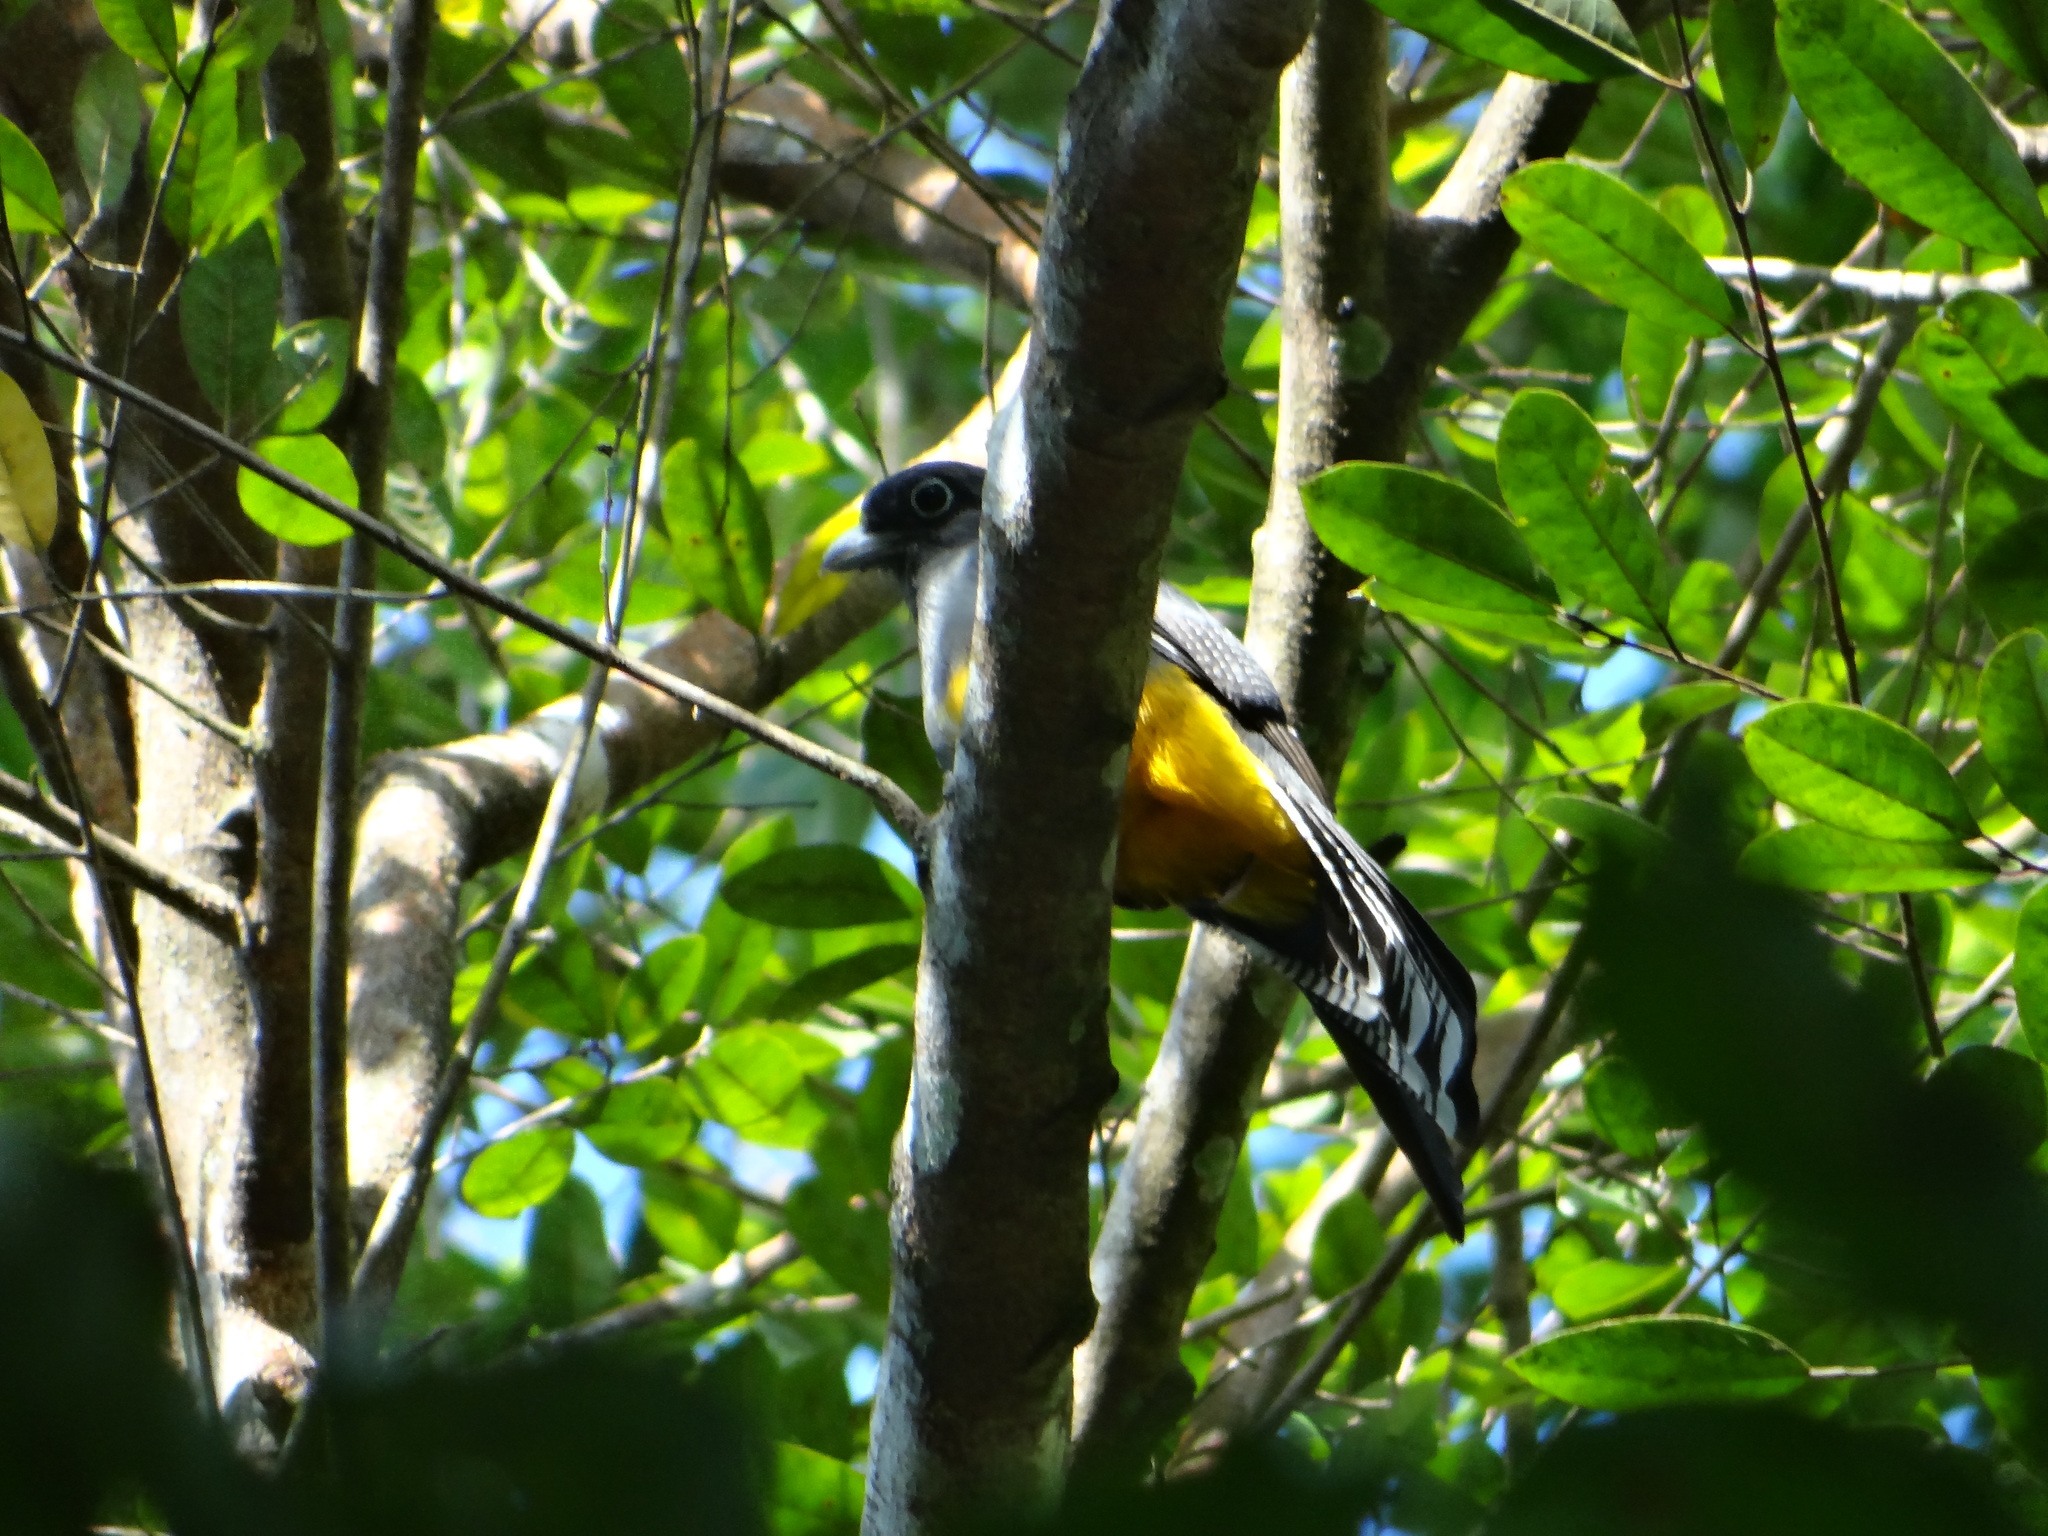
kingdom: Animalia
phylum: Chordata
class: Aves
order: Trogoniformes
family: Trogonidae
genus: Trogon
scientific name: Trogon viridis
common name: Green-backed trogon
